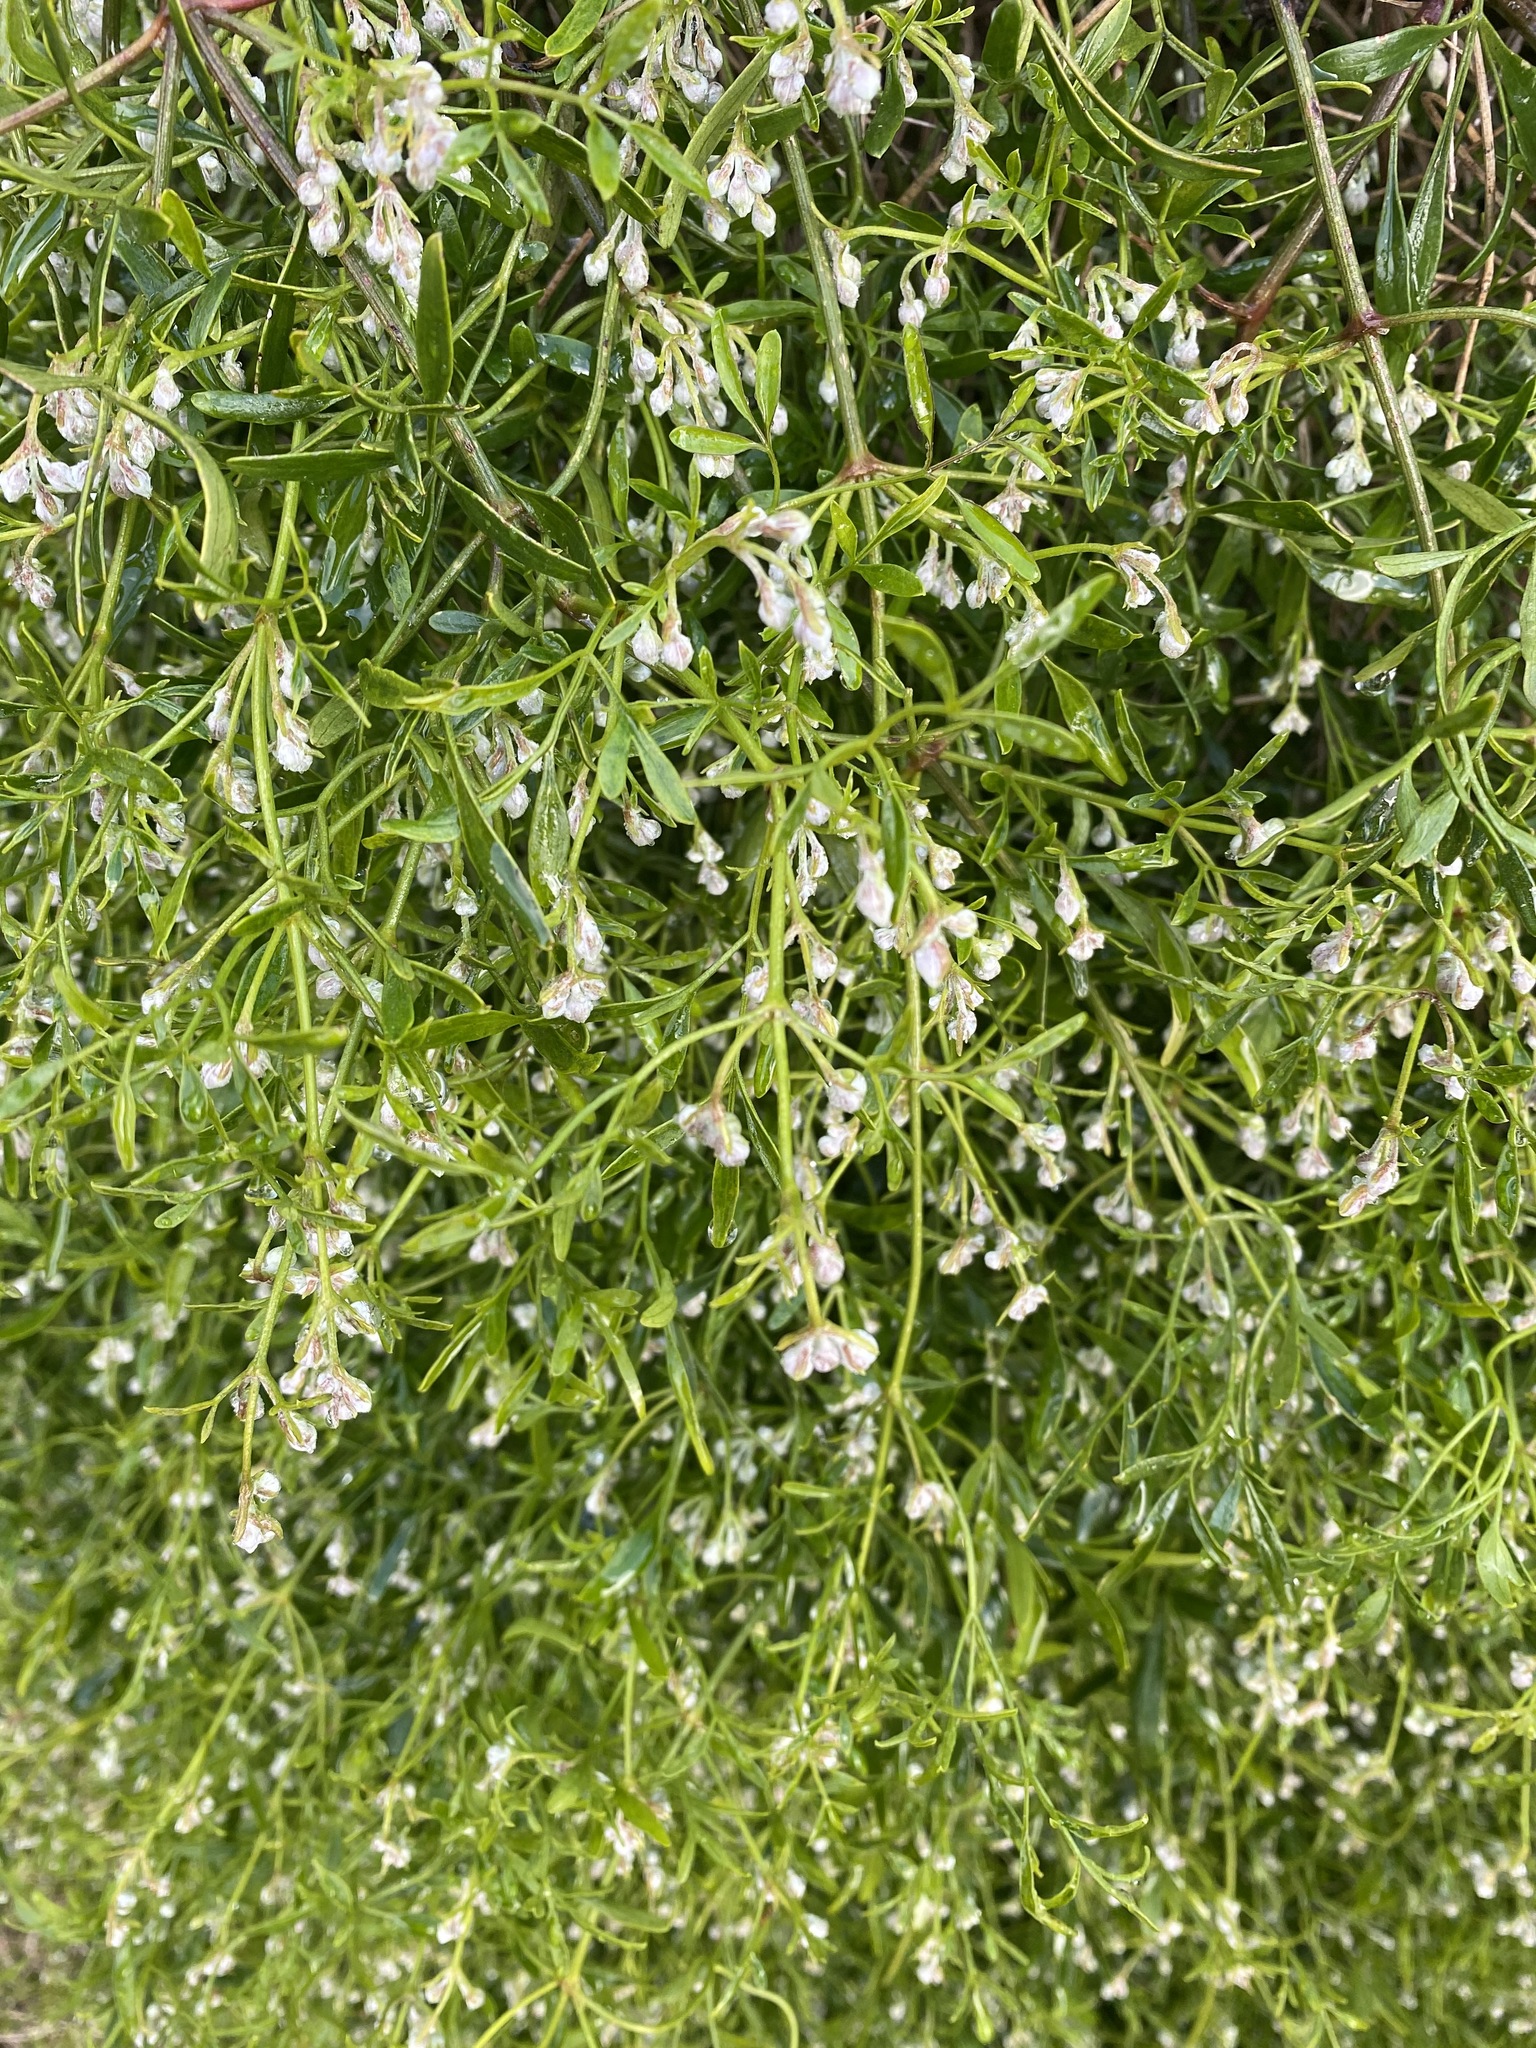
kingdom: Plantae
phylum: Tracheophyta
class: Magnoliopsida
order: Ranunculales
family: Ranunculaceae
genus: Clematis
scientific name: Clematis microphylla
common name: Headachevine
